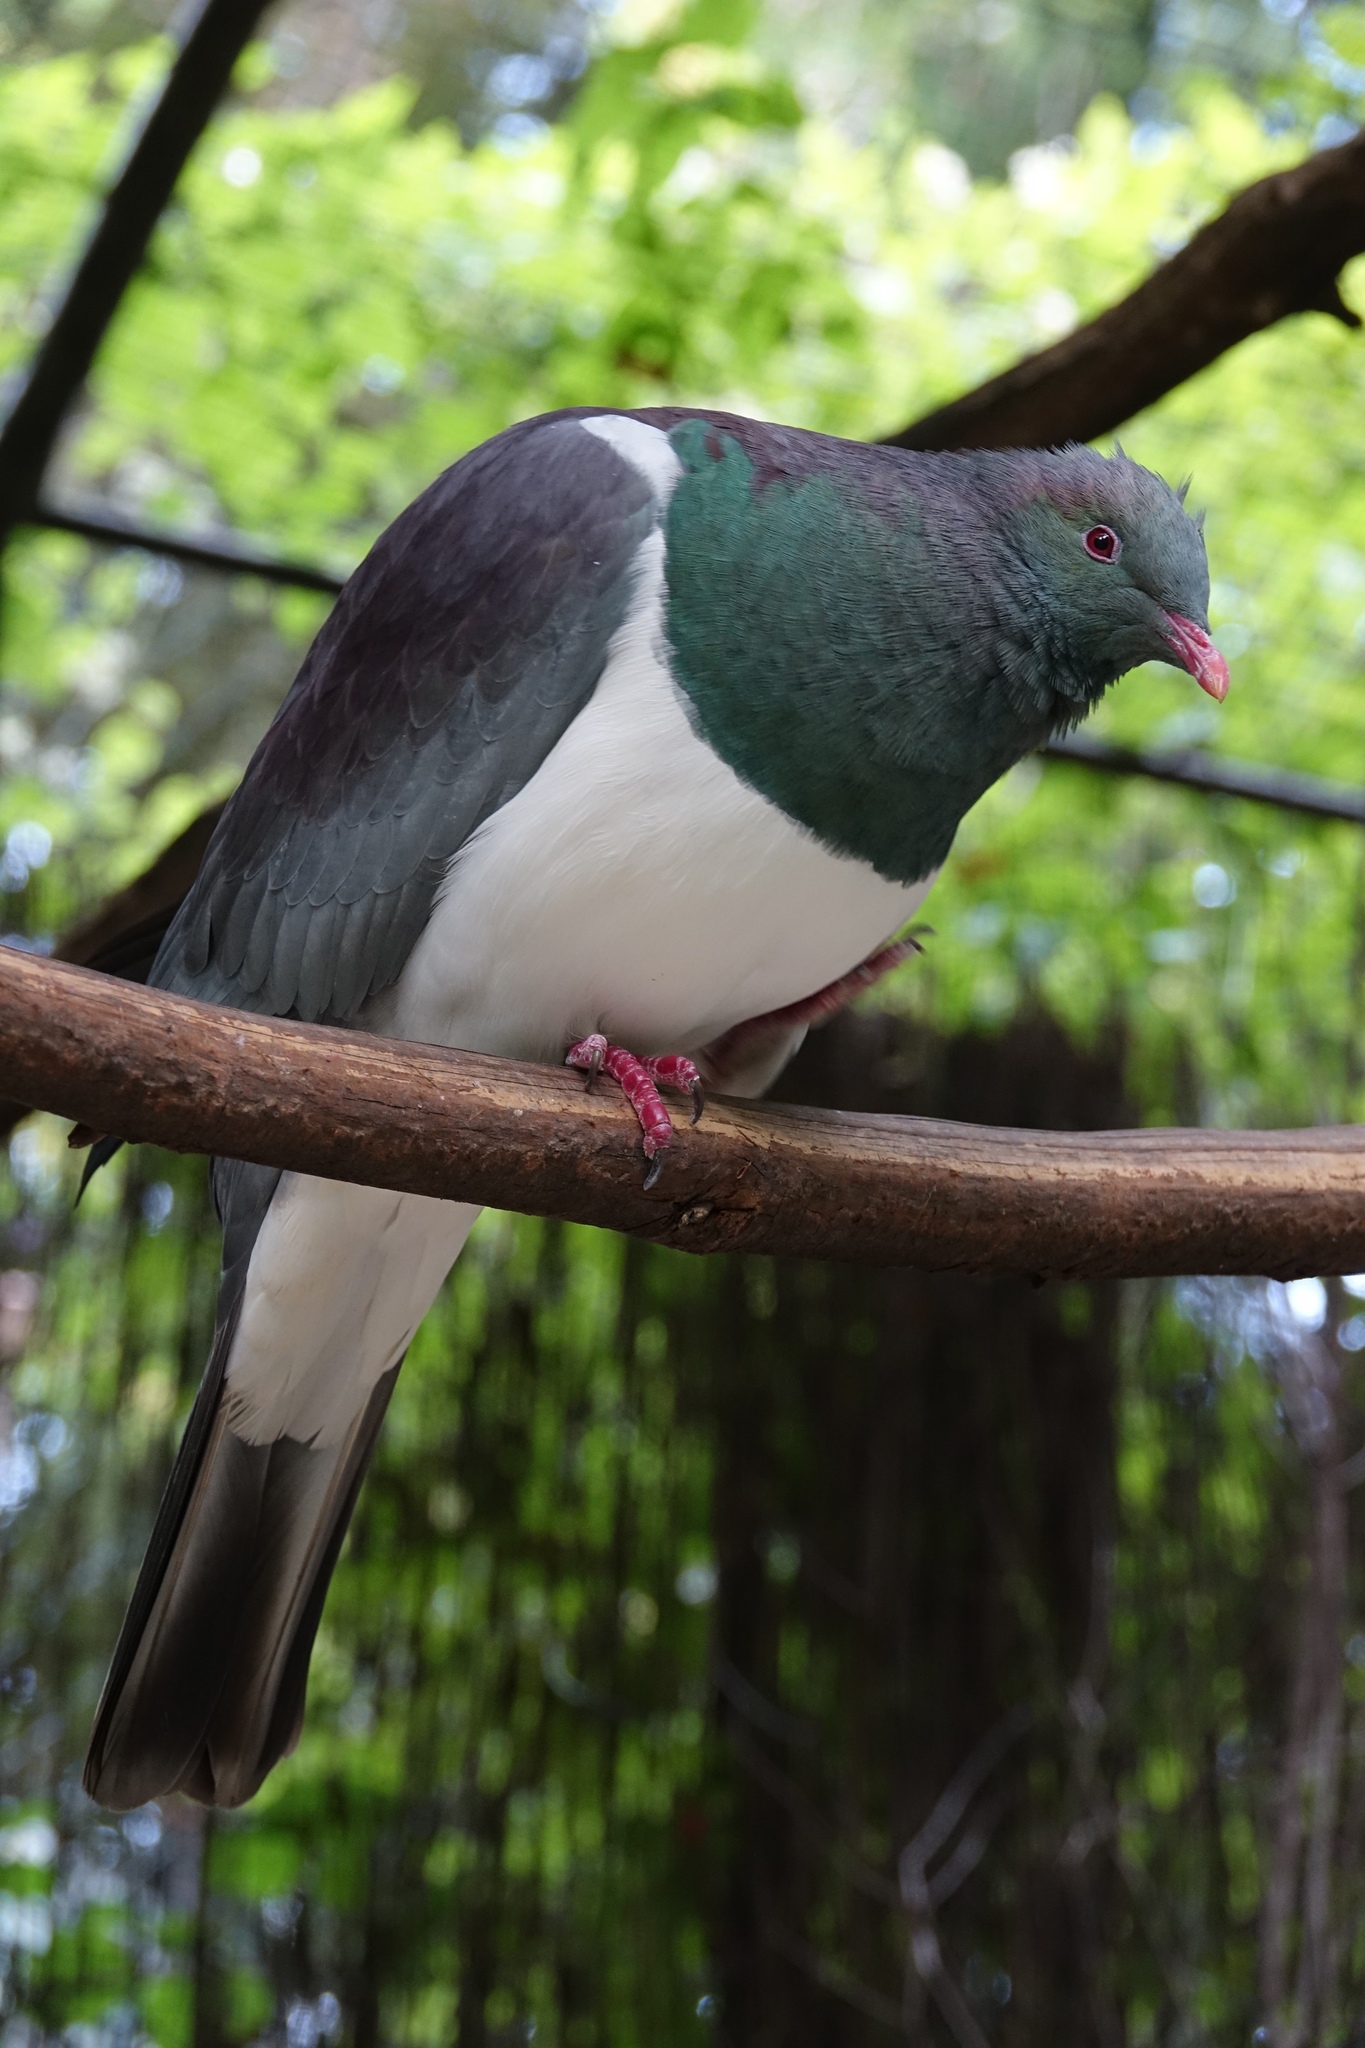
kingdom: Animalia
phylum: Chordata
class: Aves
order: Columbiformes
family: Columbidae
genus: Hemiphaga
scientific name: Hemiphaga novaeseelandiae
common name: New zealand pigeon
